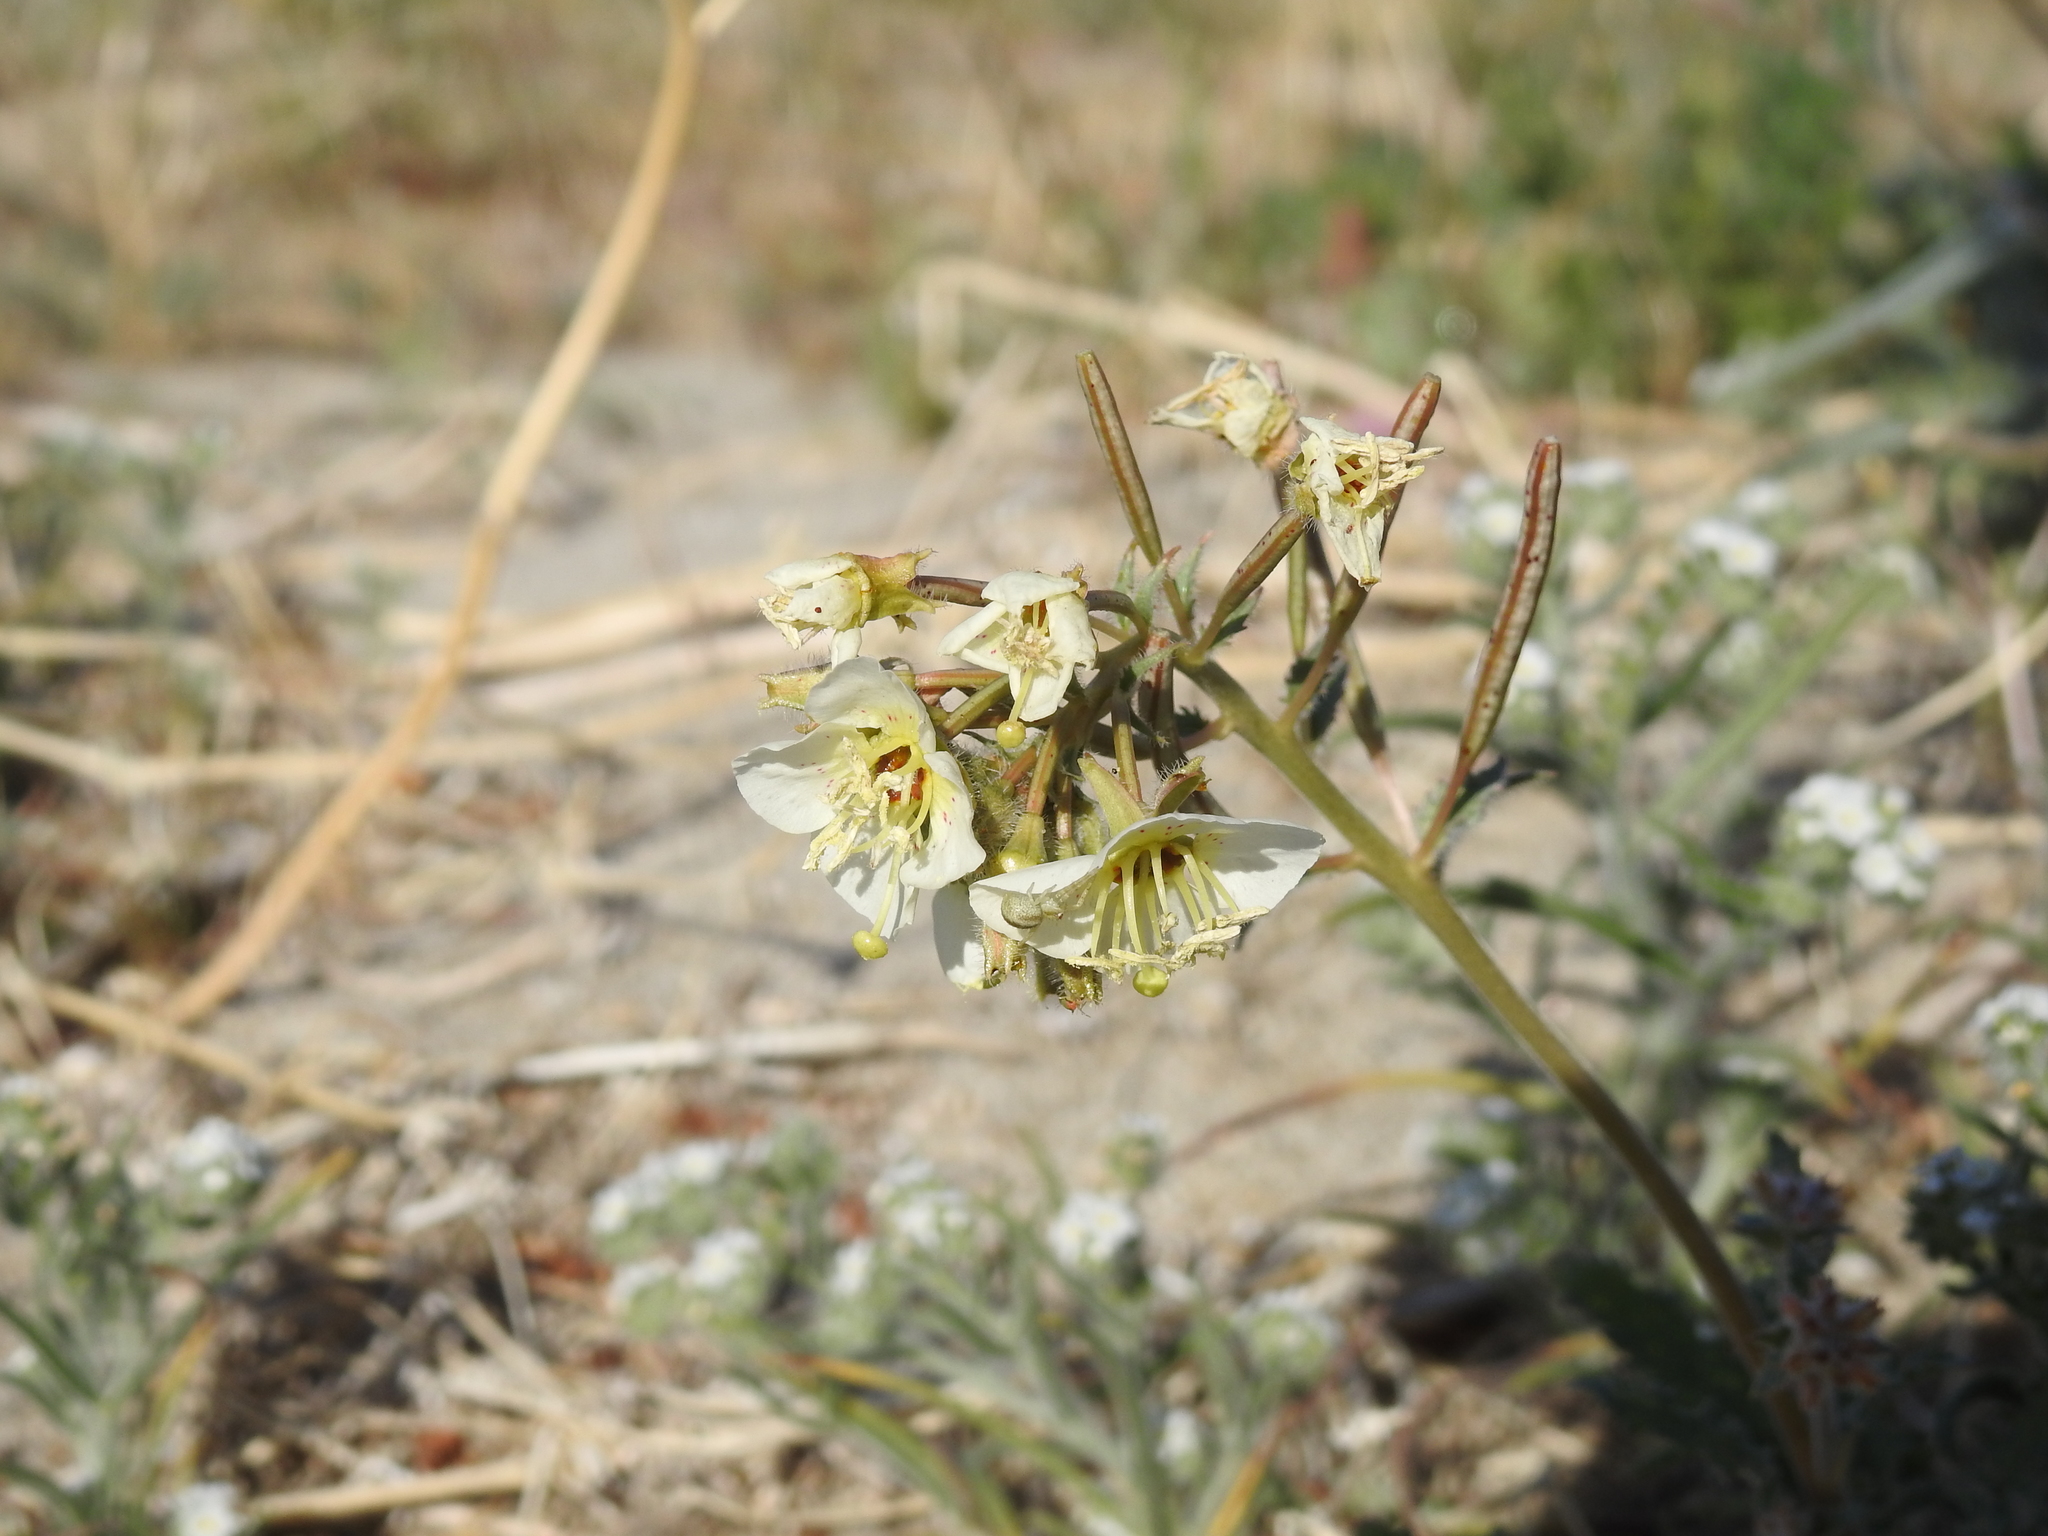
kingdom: Plantae
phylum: Tracheophyta
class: Magnoliopsida
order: Myrtales
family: Onagraceae
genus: Chylismia
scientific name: Chylismia claviformis
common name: Browneyes
